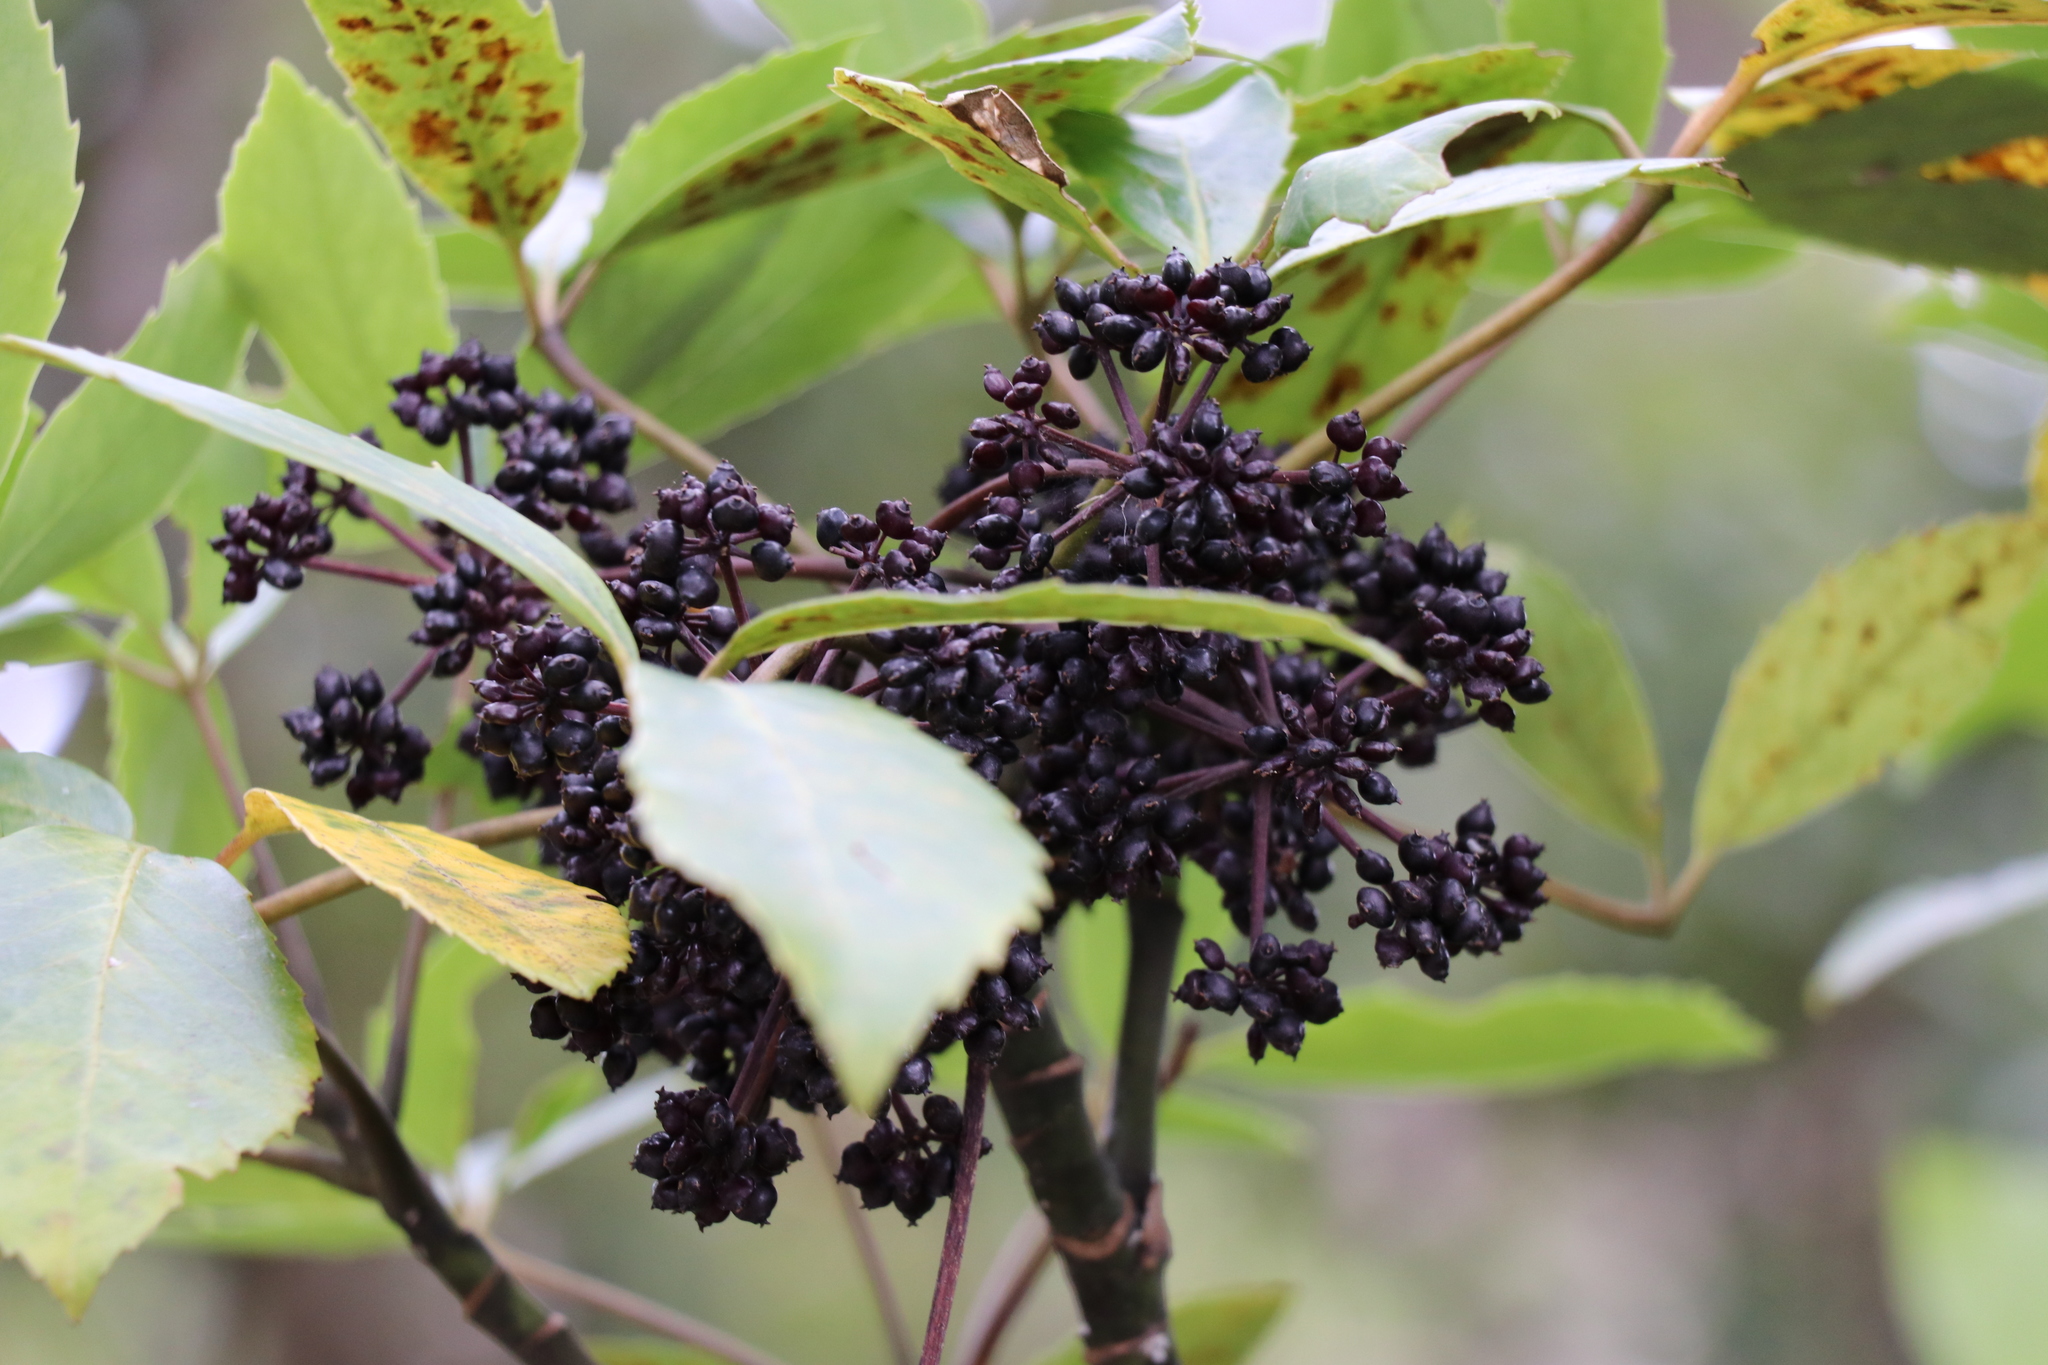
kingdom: Plantae
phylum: Tracheophyta
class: Magnoliopsida
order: Apiales
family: Araliaceae
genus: Neopanax
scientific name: Neopanax arboreus
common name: Five-fingers
